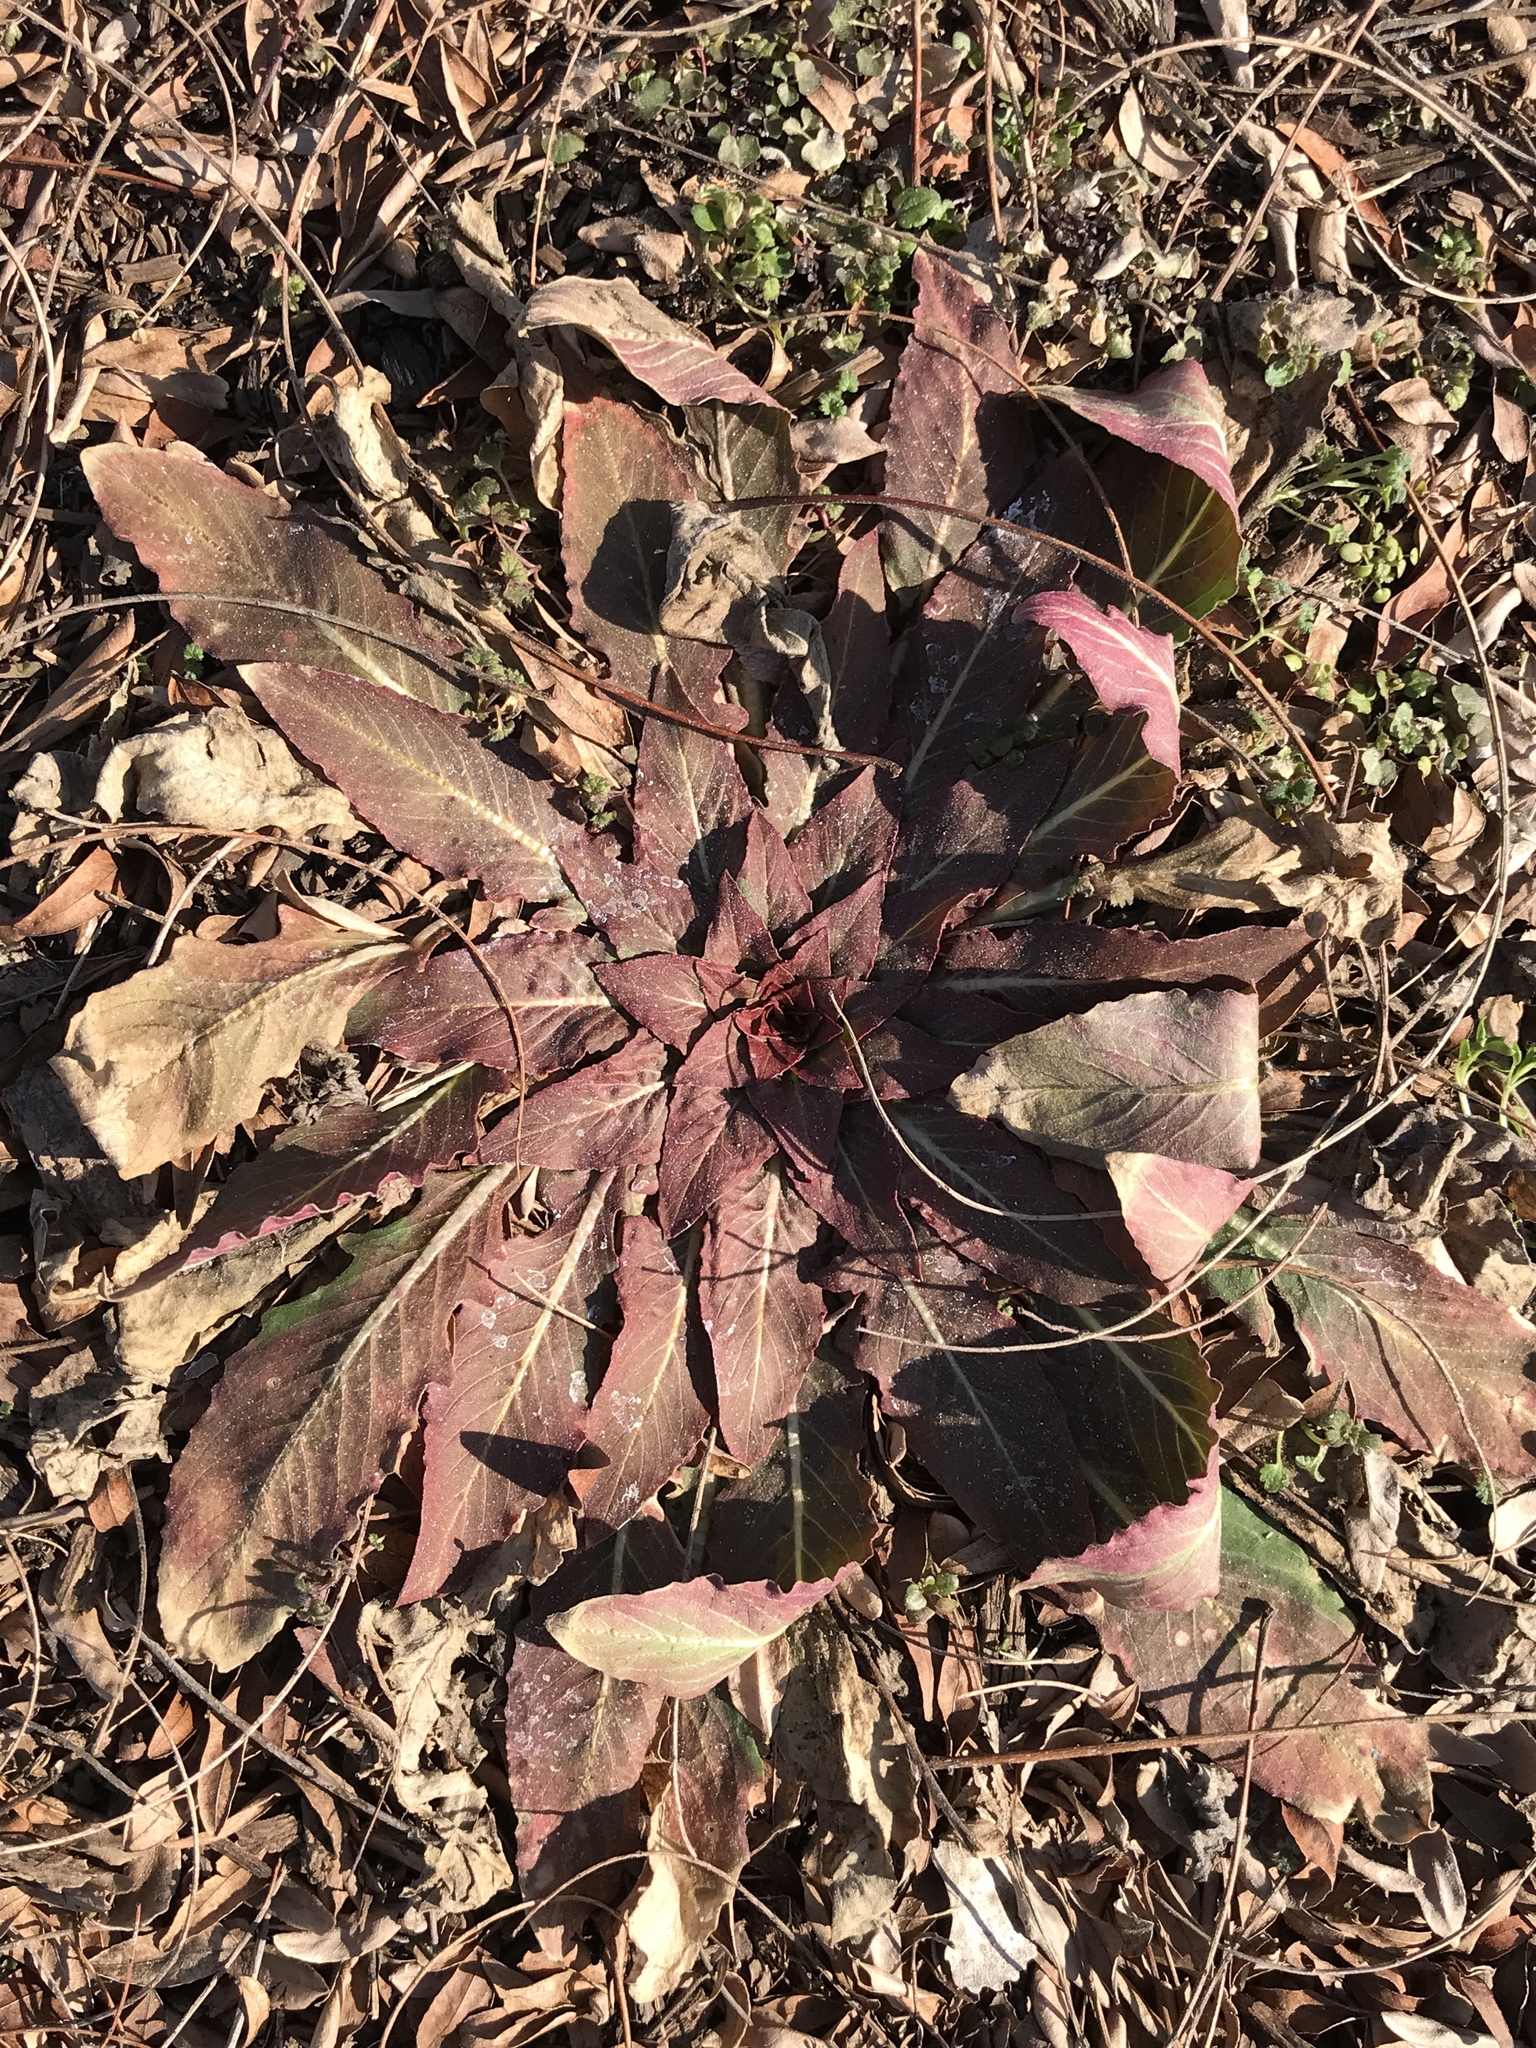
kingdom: Plantae
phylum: Tracheophyta
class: Magnoliopsida
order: Myrtales
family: Onagraceae
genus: Oenothera
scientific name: Oenothera biennis
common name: Common evening-primrose
